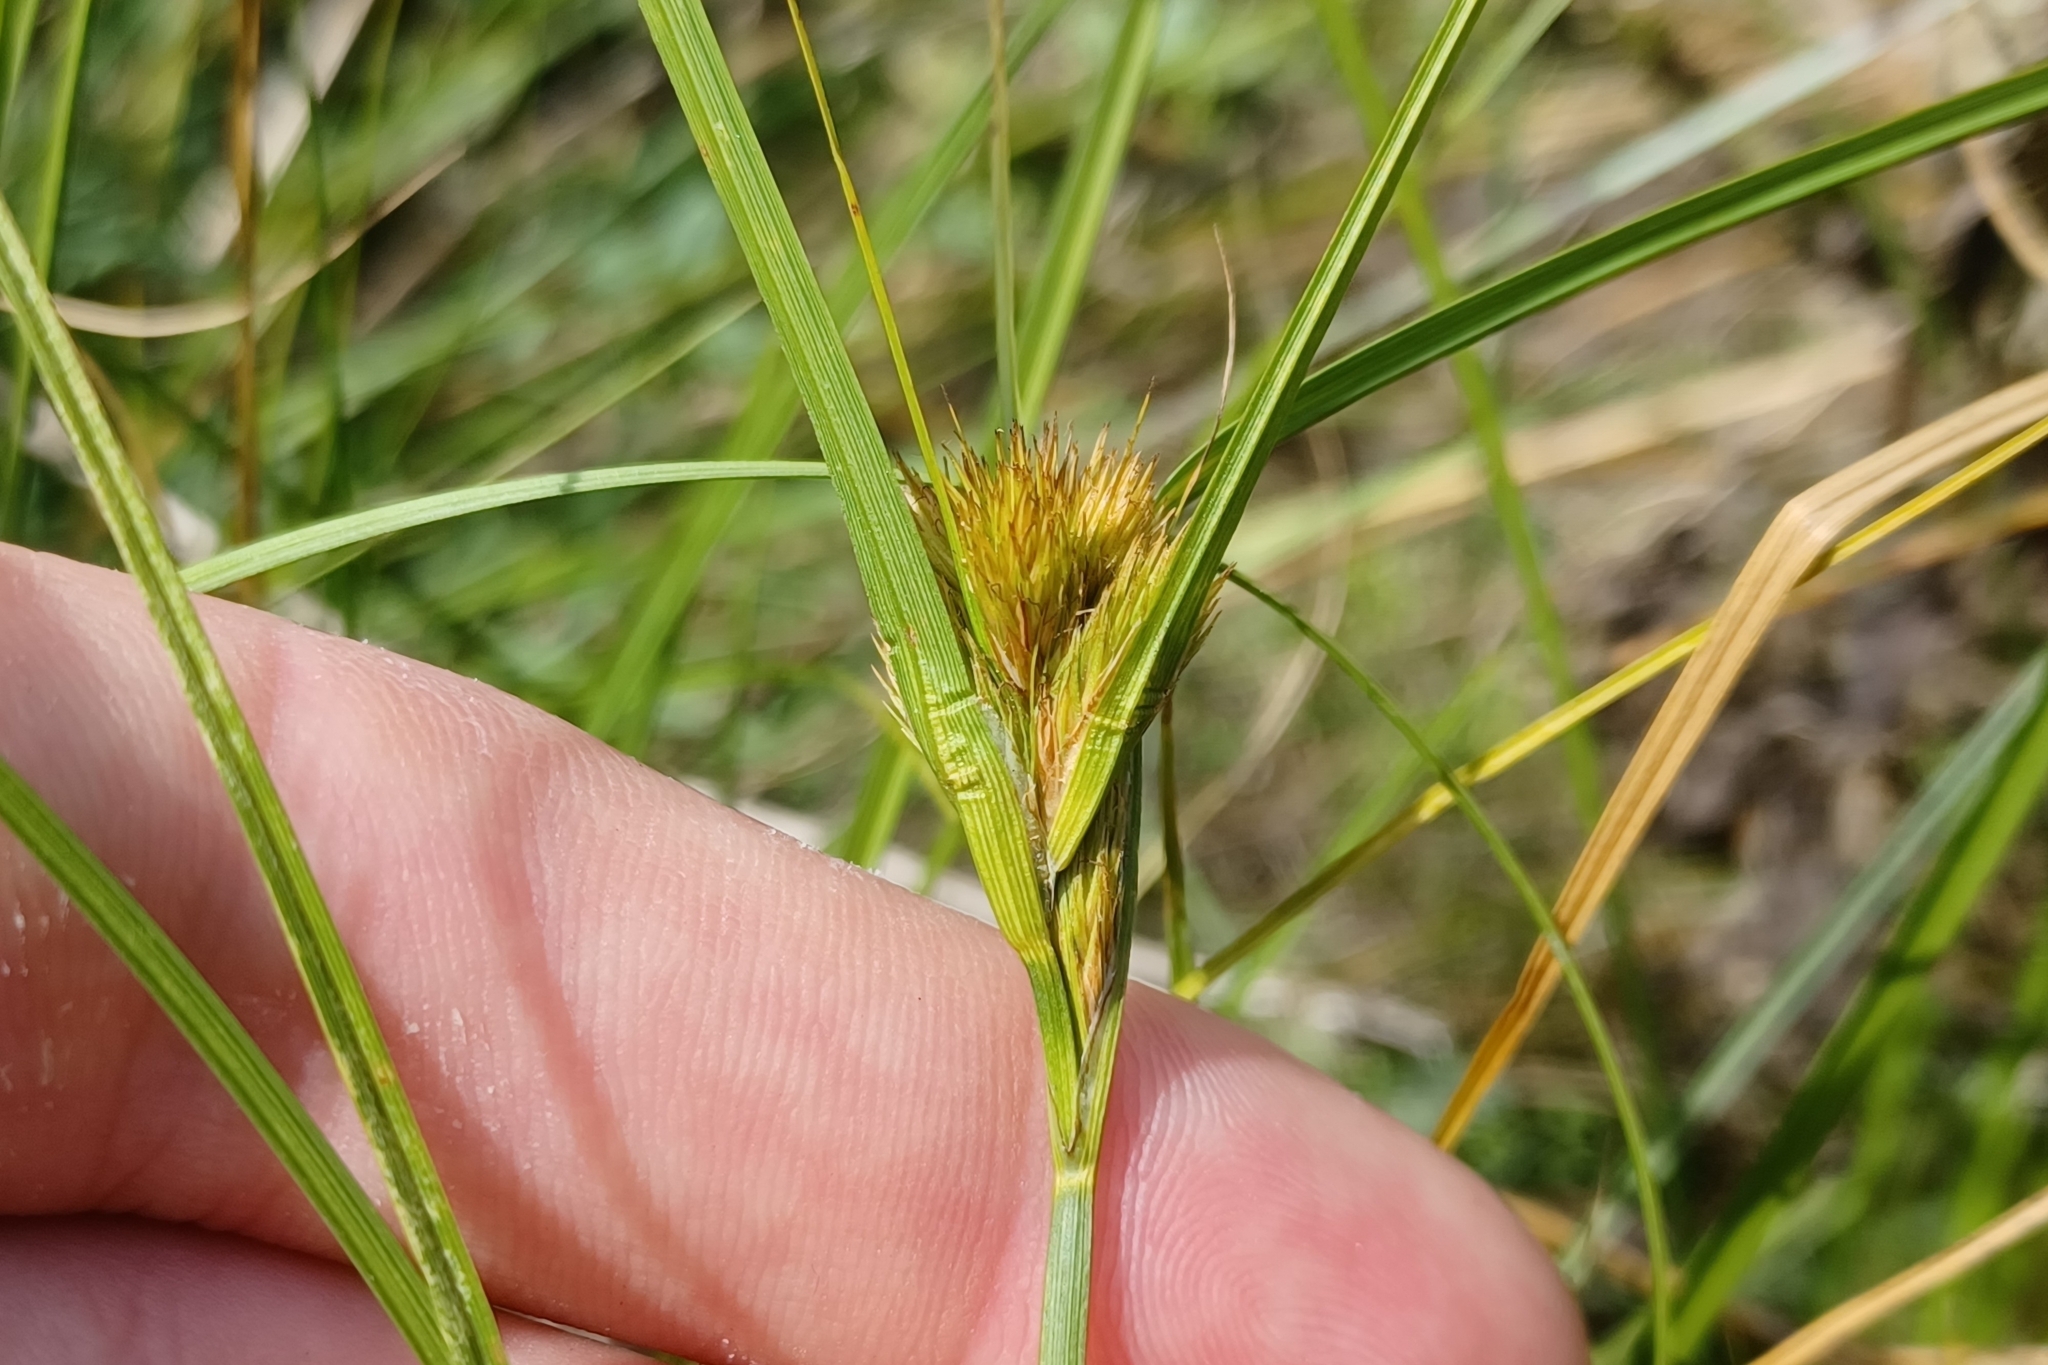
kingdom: Plantae
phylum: Tracheophyta
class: Liliopsida
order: Poales
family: Cyperaceae
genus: Carex
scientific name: Carex sychnocephala
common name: Dense long-beaked sedge
